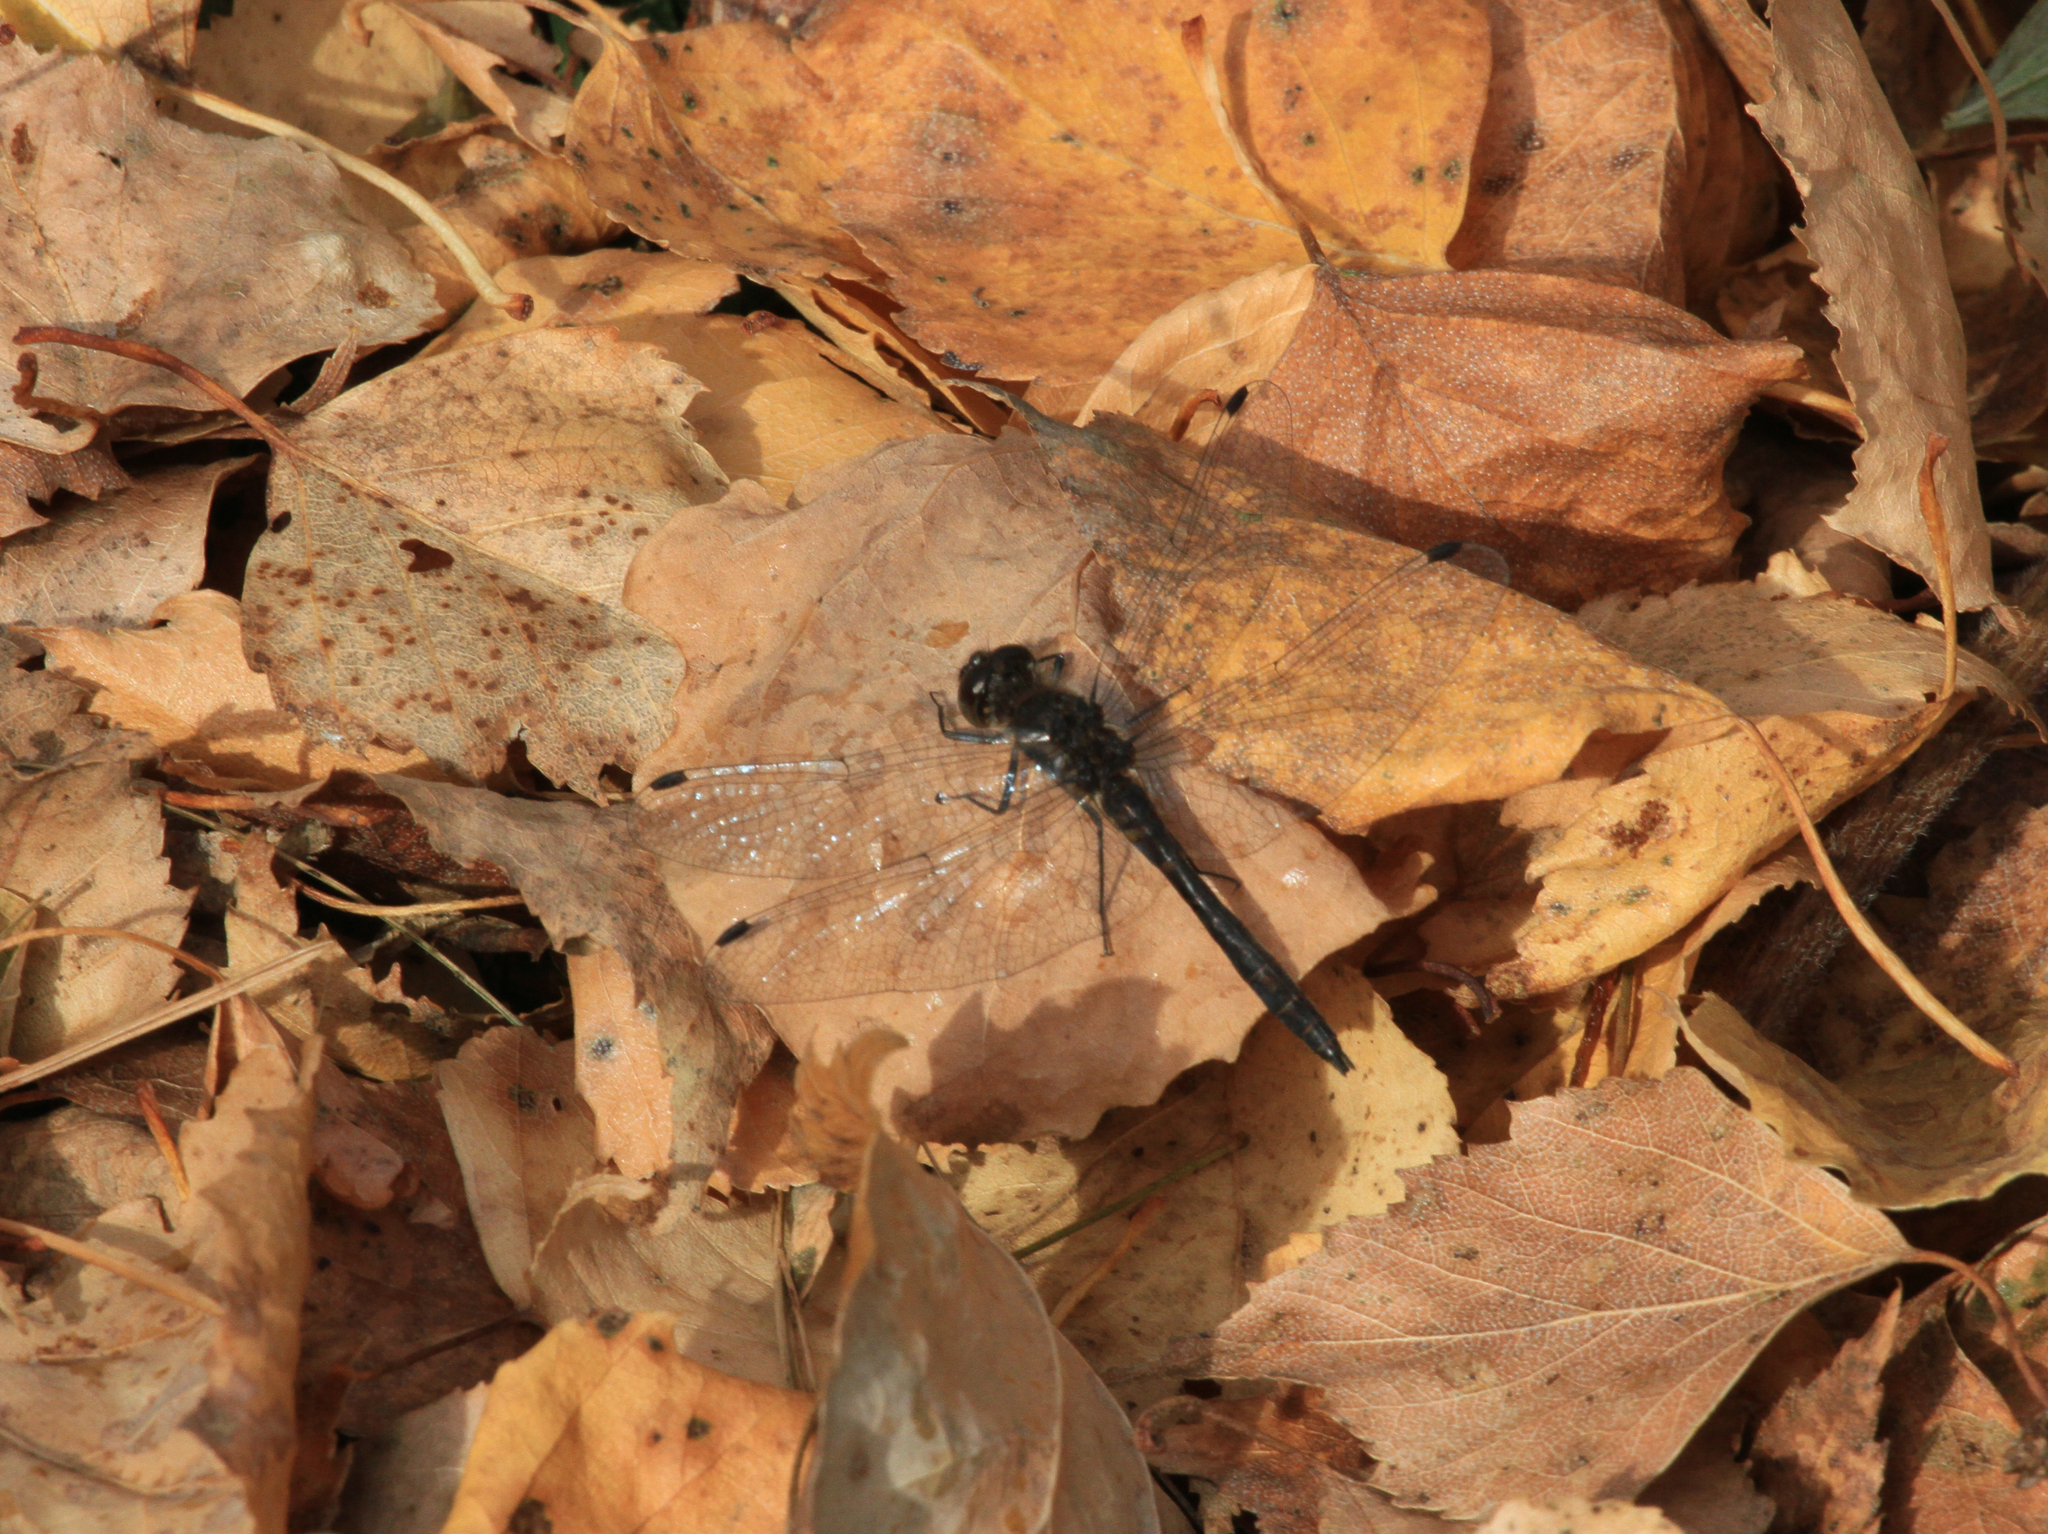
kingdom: Animalia
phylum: Arthropoda
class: Insecta
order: Odonata
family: Libellulidae
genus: Sympetrum
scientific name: Sympetrum danae
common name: Black darter
